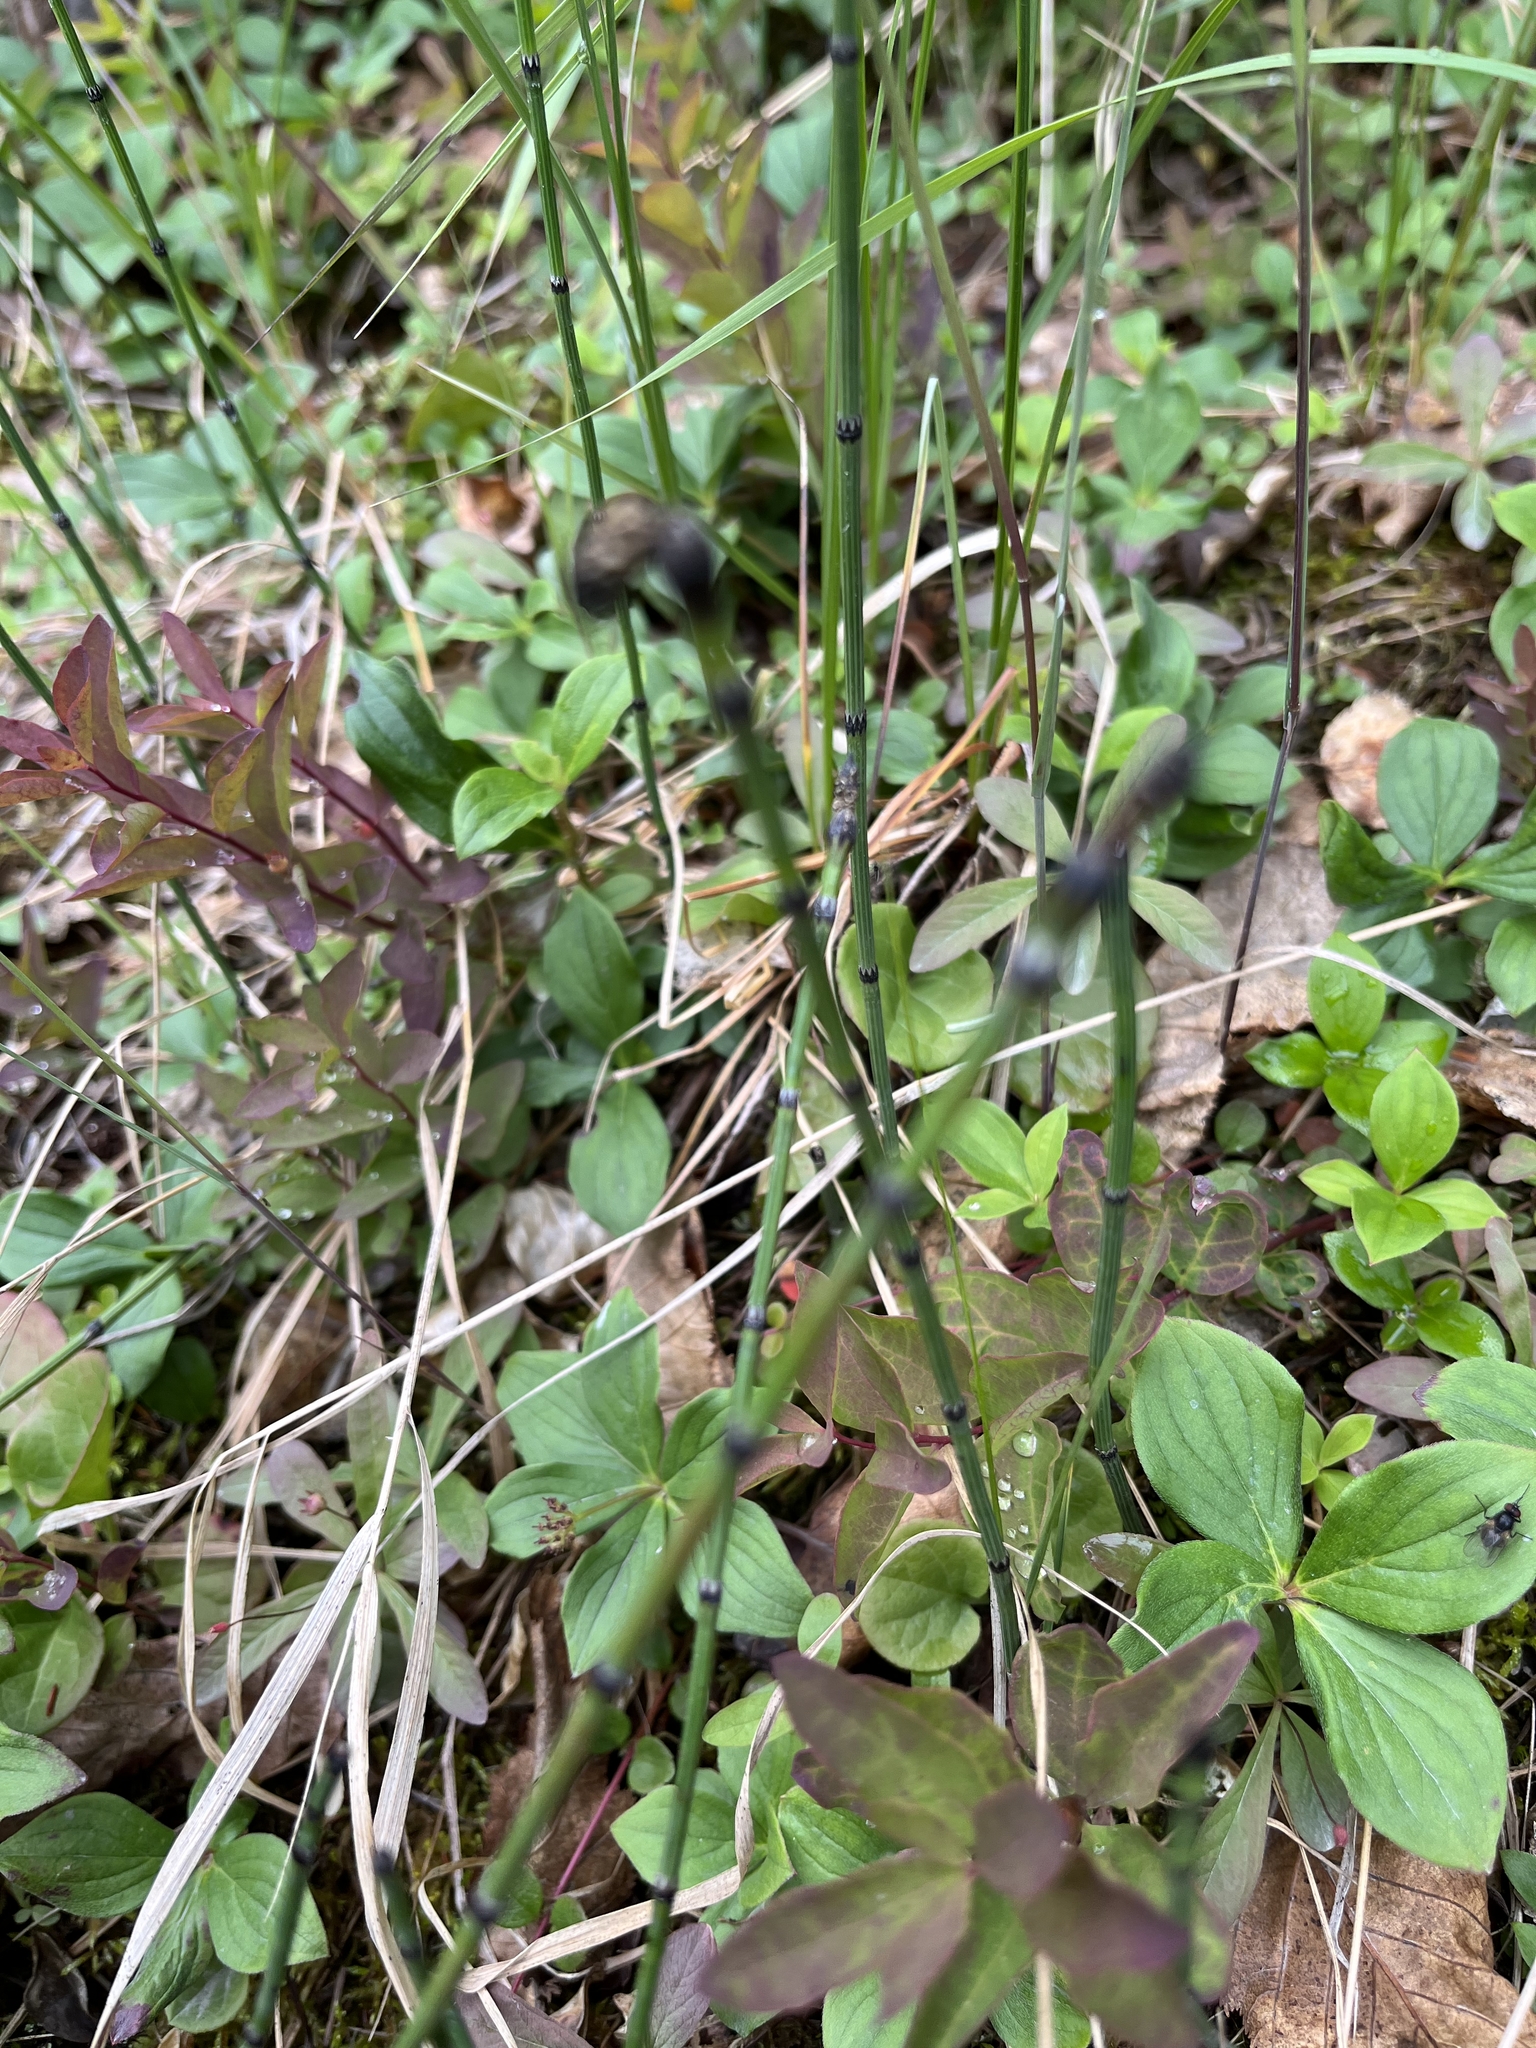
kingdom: Plantae
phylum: Tracheophyta
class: Polypodiopsida
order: Equisetales
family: Equisetaceae
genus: Equisetum
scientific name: Equisetum variegatum
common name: Variegated horsetail
